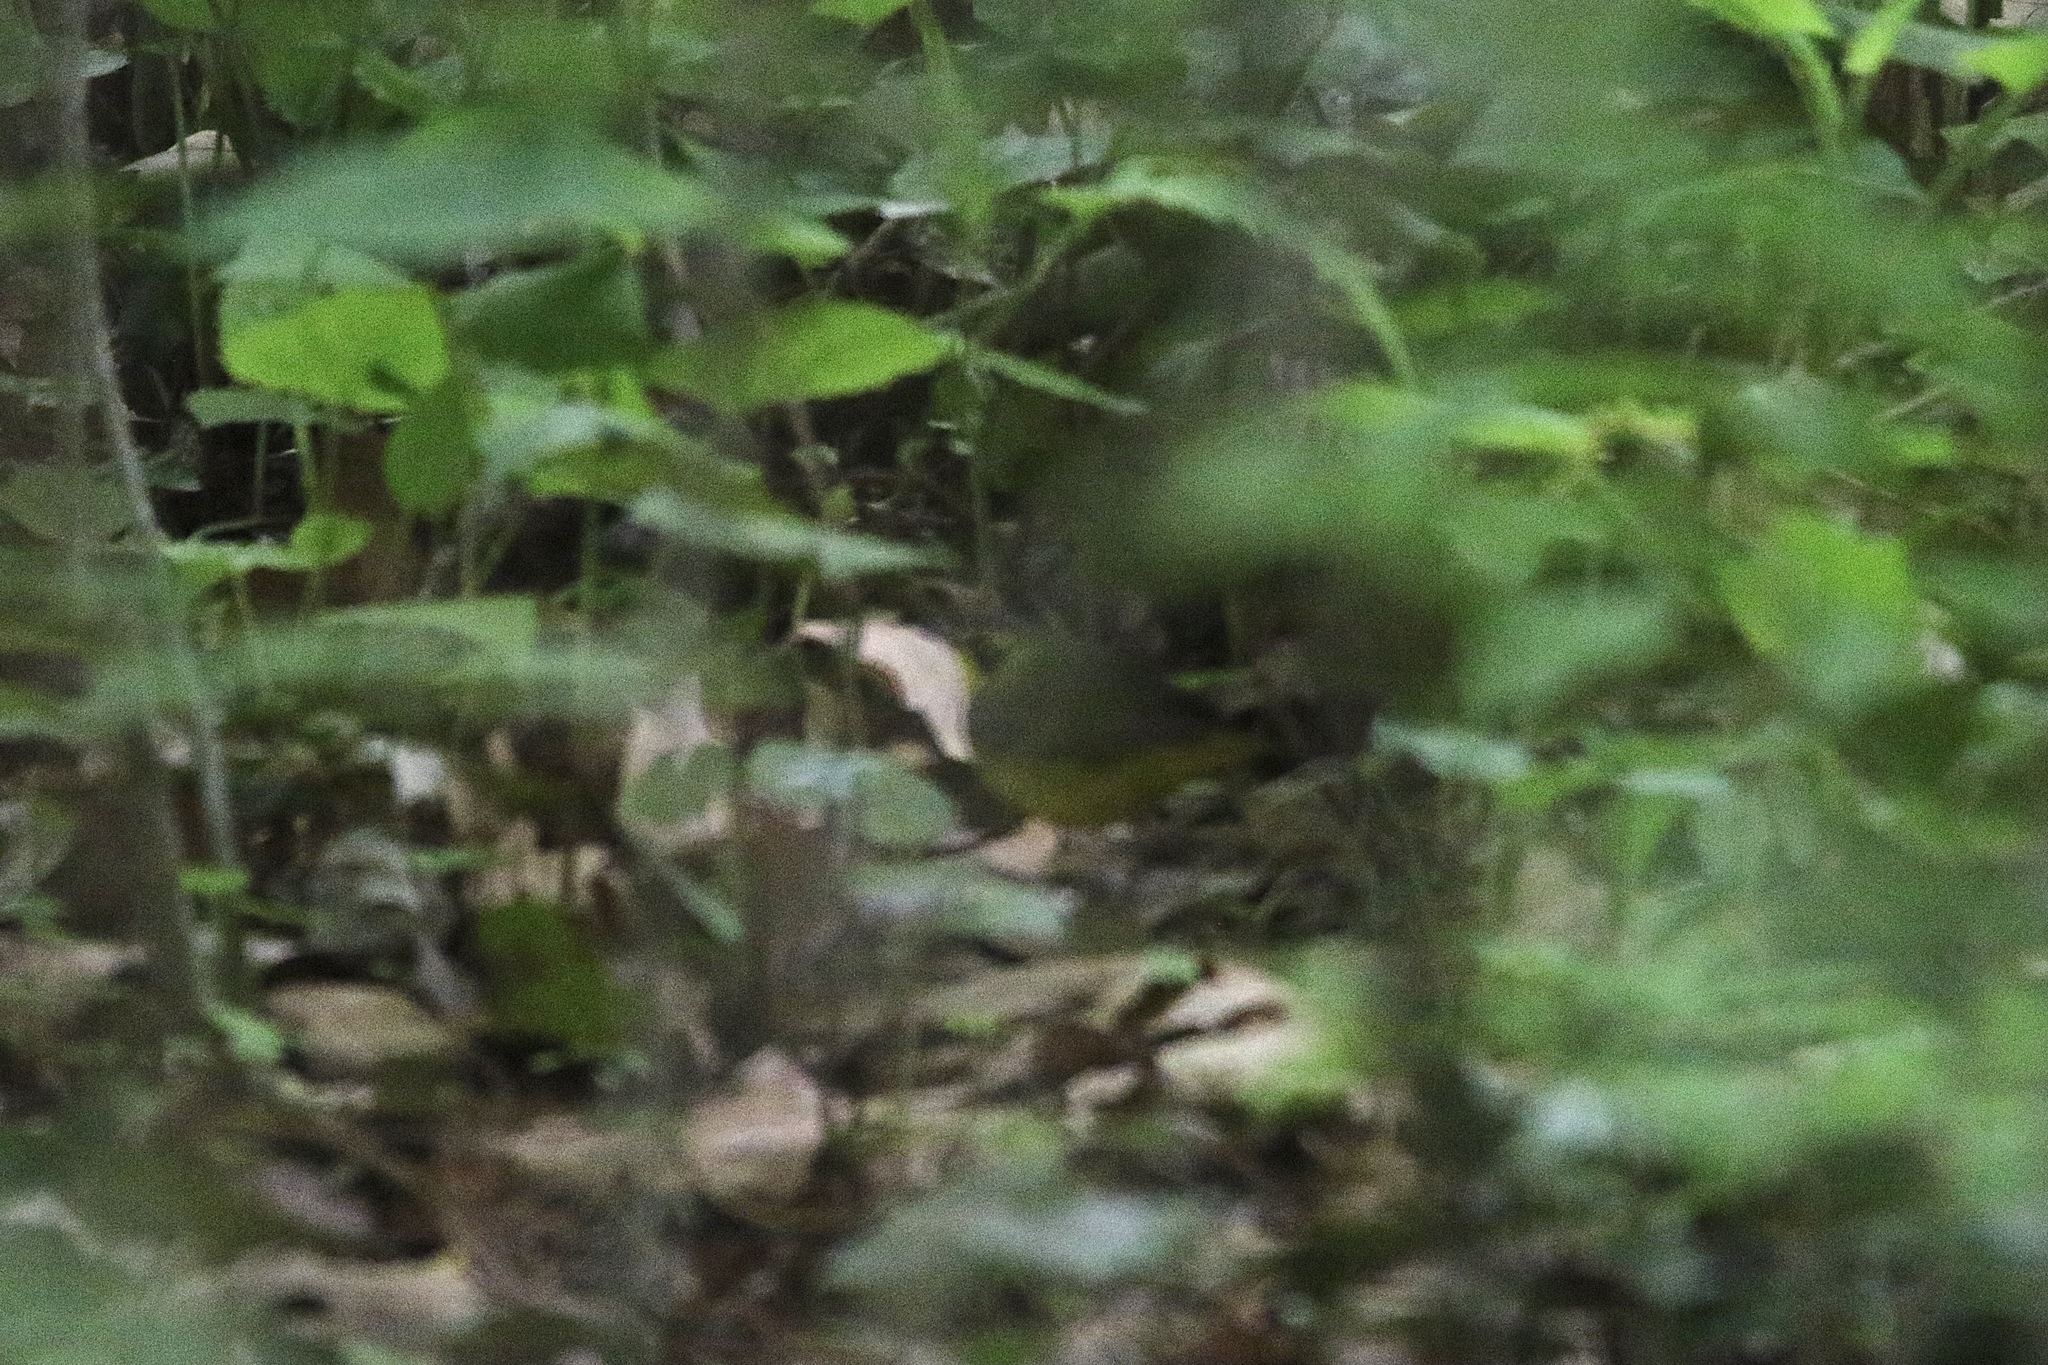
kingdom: Animalia
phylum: Chordata
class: Aves
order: Passeriformes
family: Parulidae
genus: Geothlypis
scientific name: Geothlypis formosa
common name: Kentucky warbler
